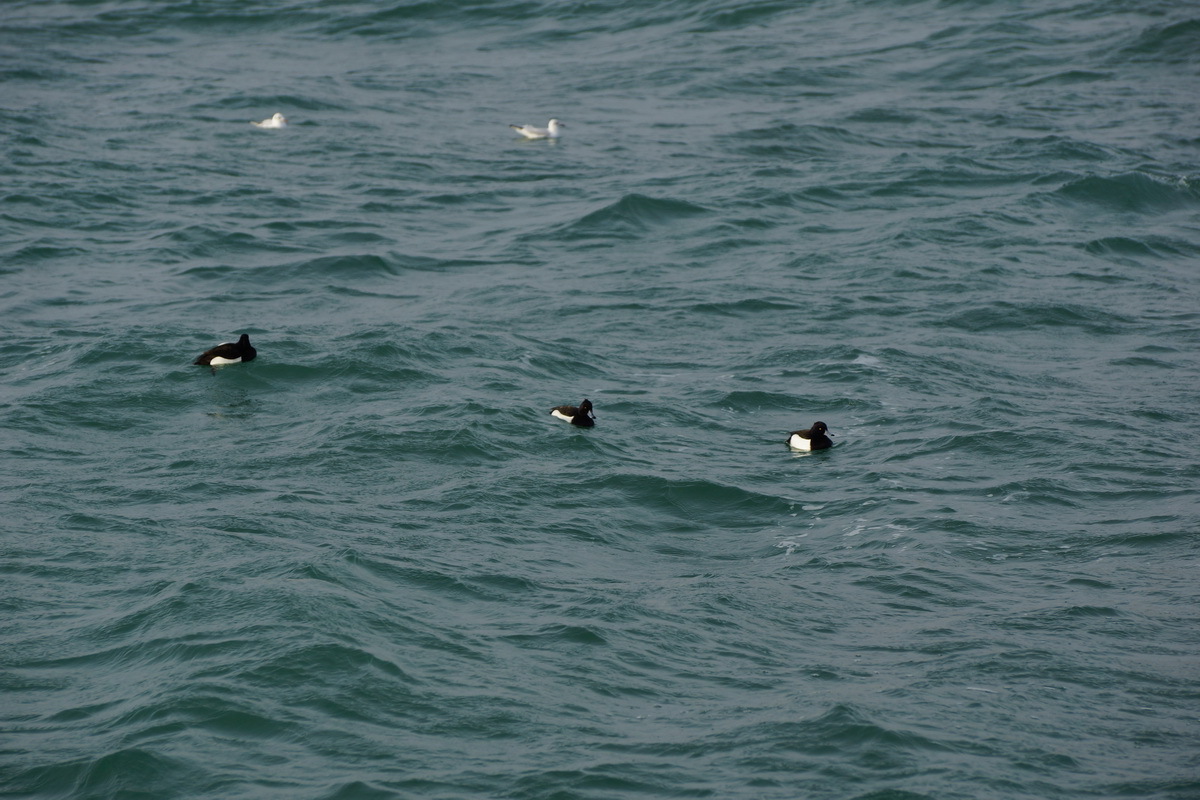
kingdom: Animalia
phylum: Chordata
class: Aves
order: Anseriformes
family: Anatidae
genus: Aythya
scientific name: Aythya fuligula
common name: Tufted duck
